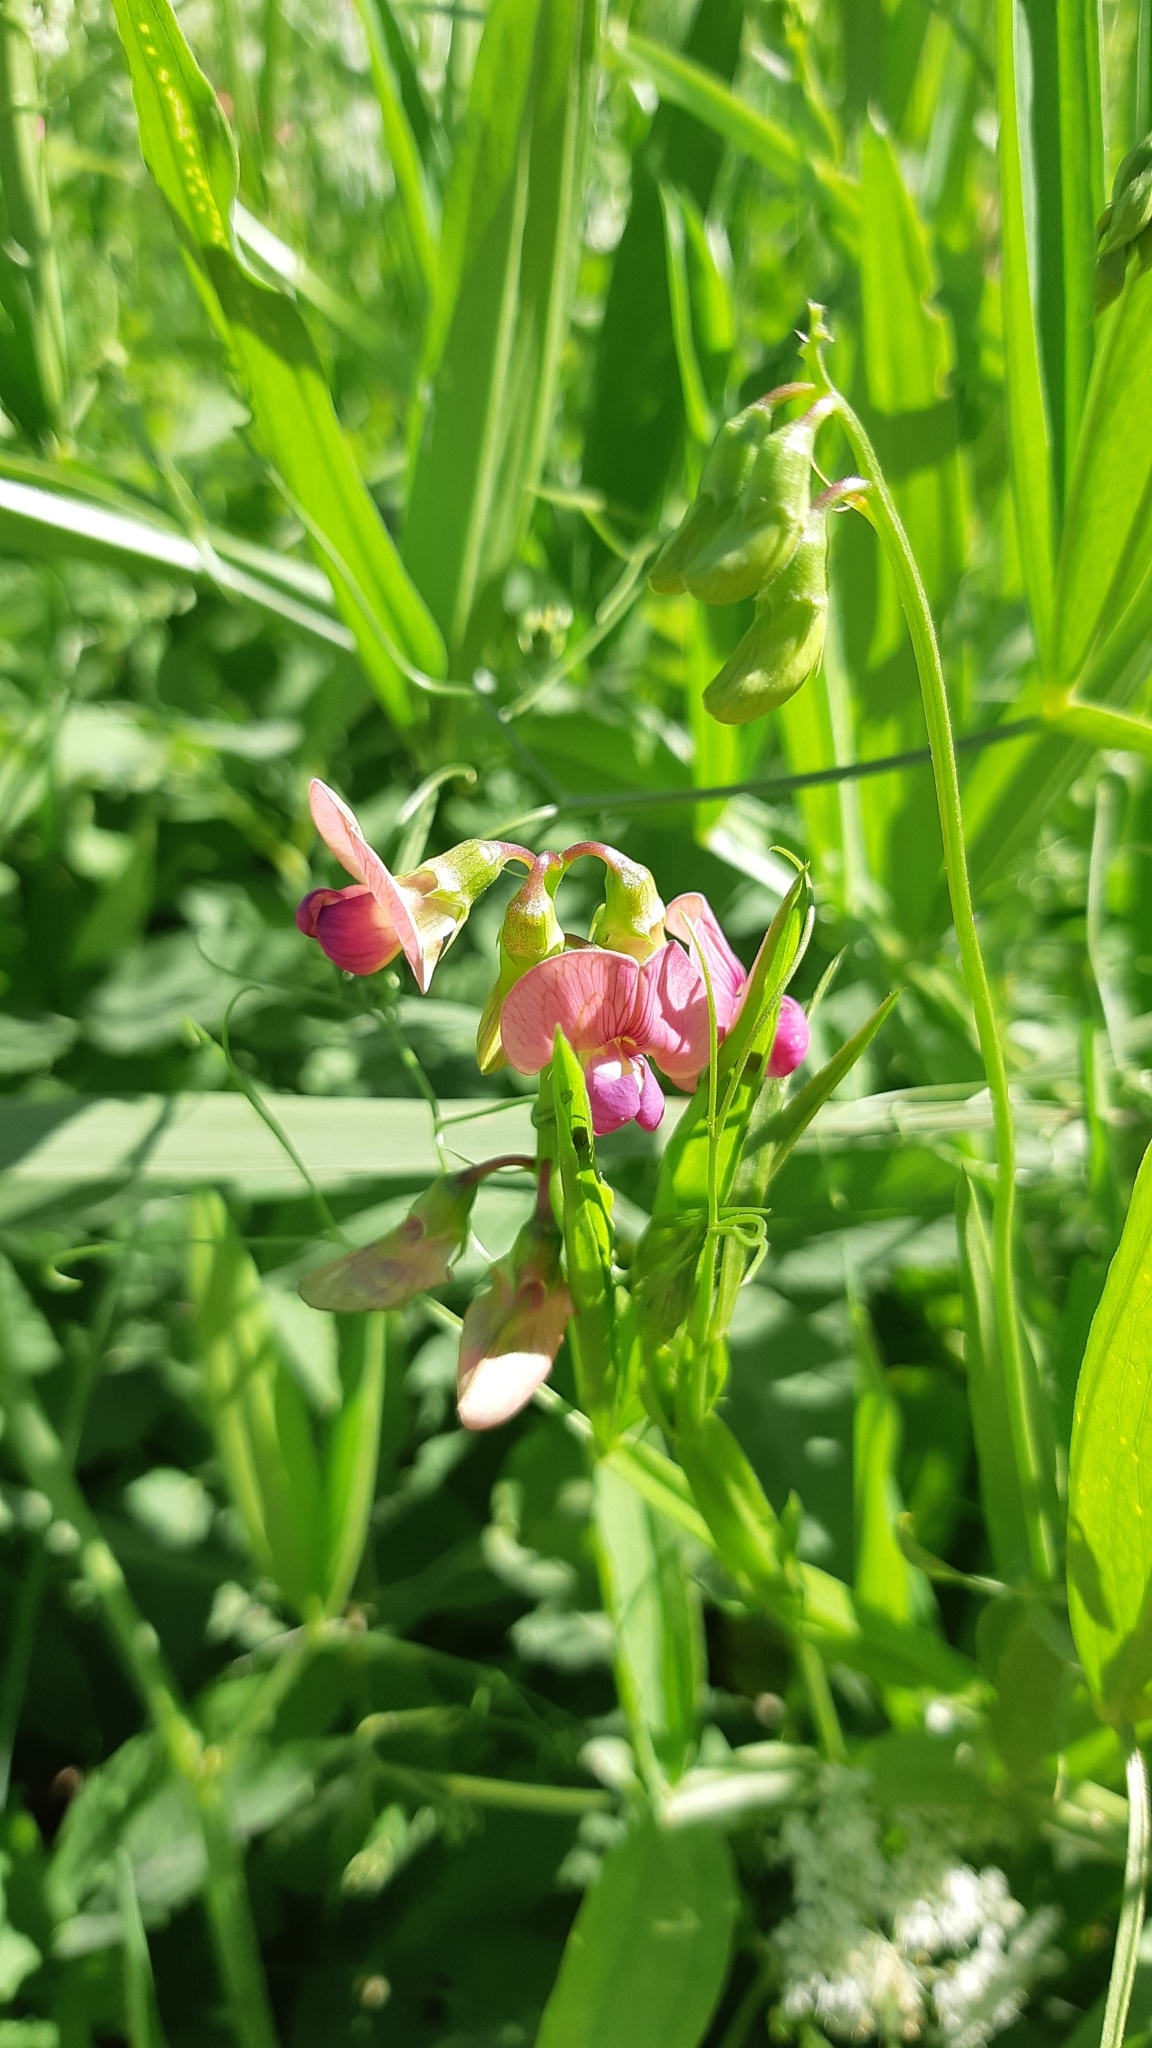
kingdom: Plantae
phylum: Tracheophyta
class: Magnoliopsida
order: Fabales
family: Fabaceae
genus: Lathyrus
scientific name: Lathyrus sylvestris
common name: Flat pea
